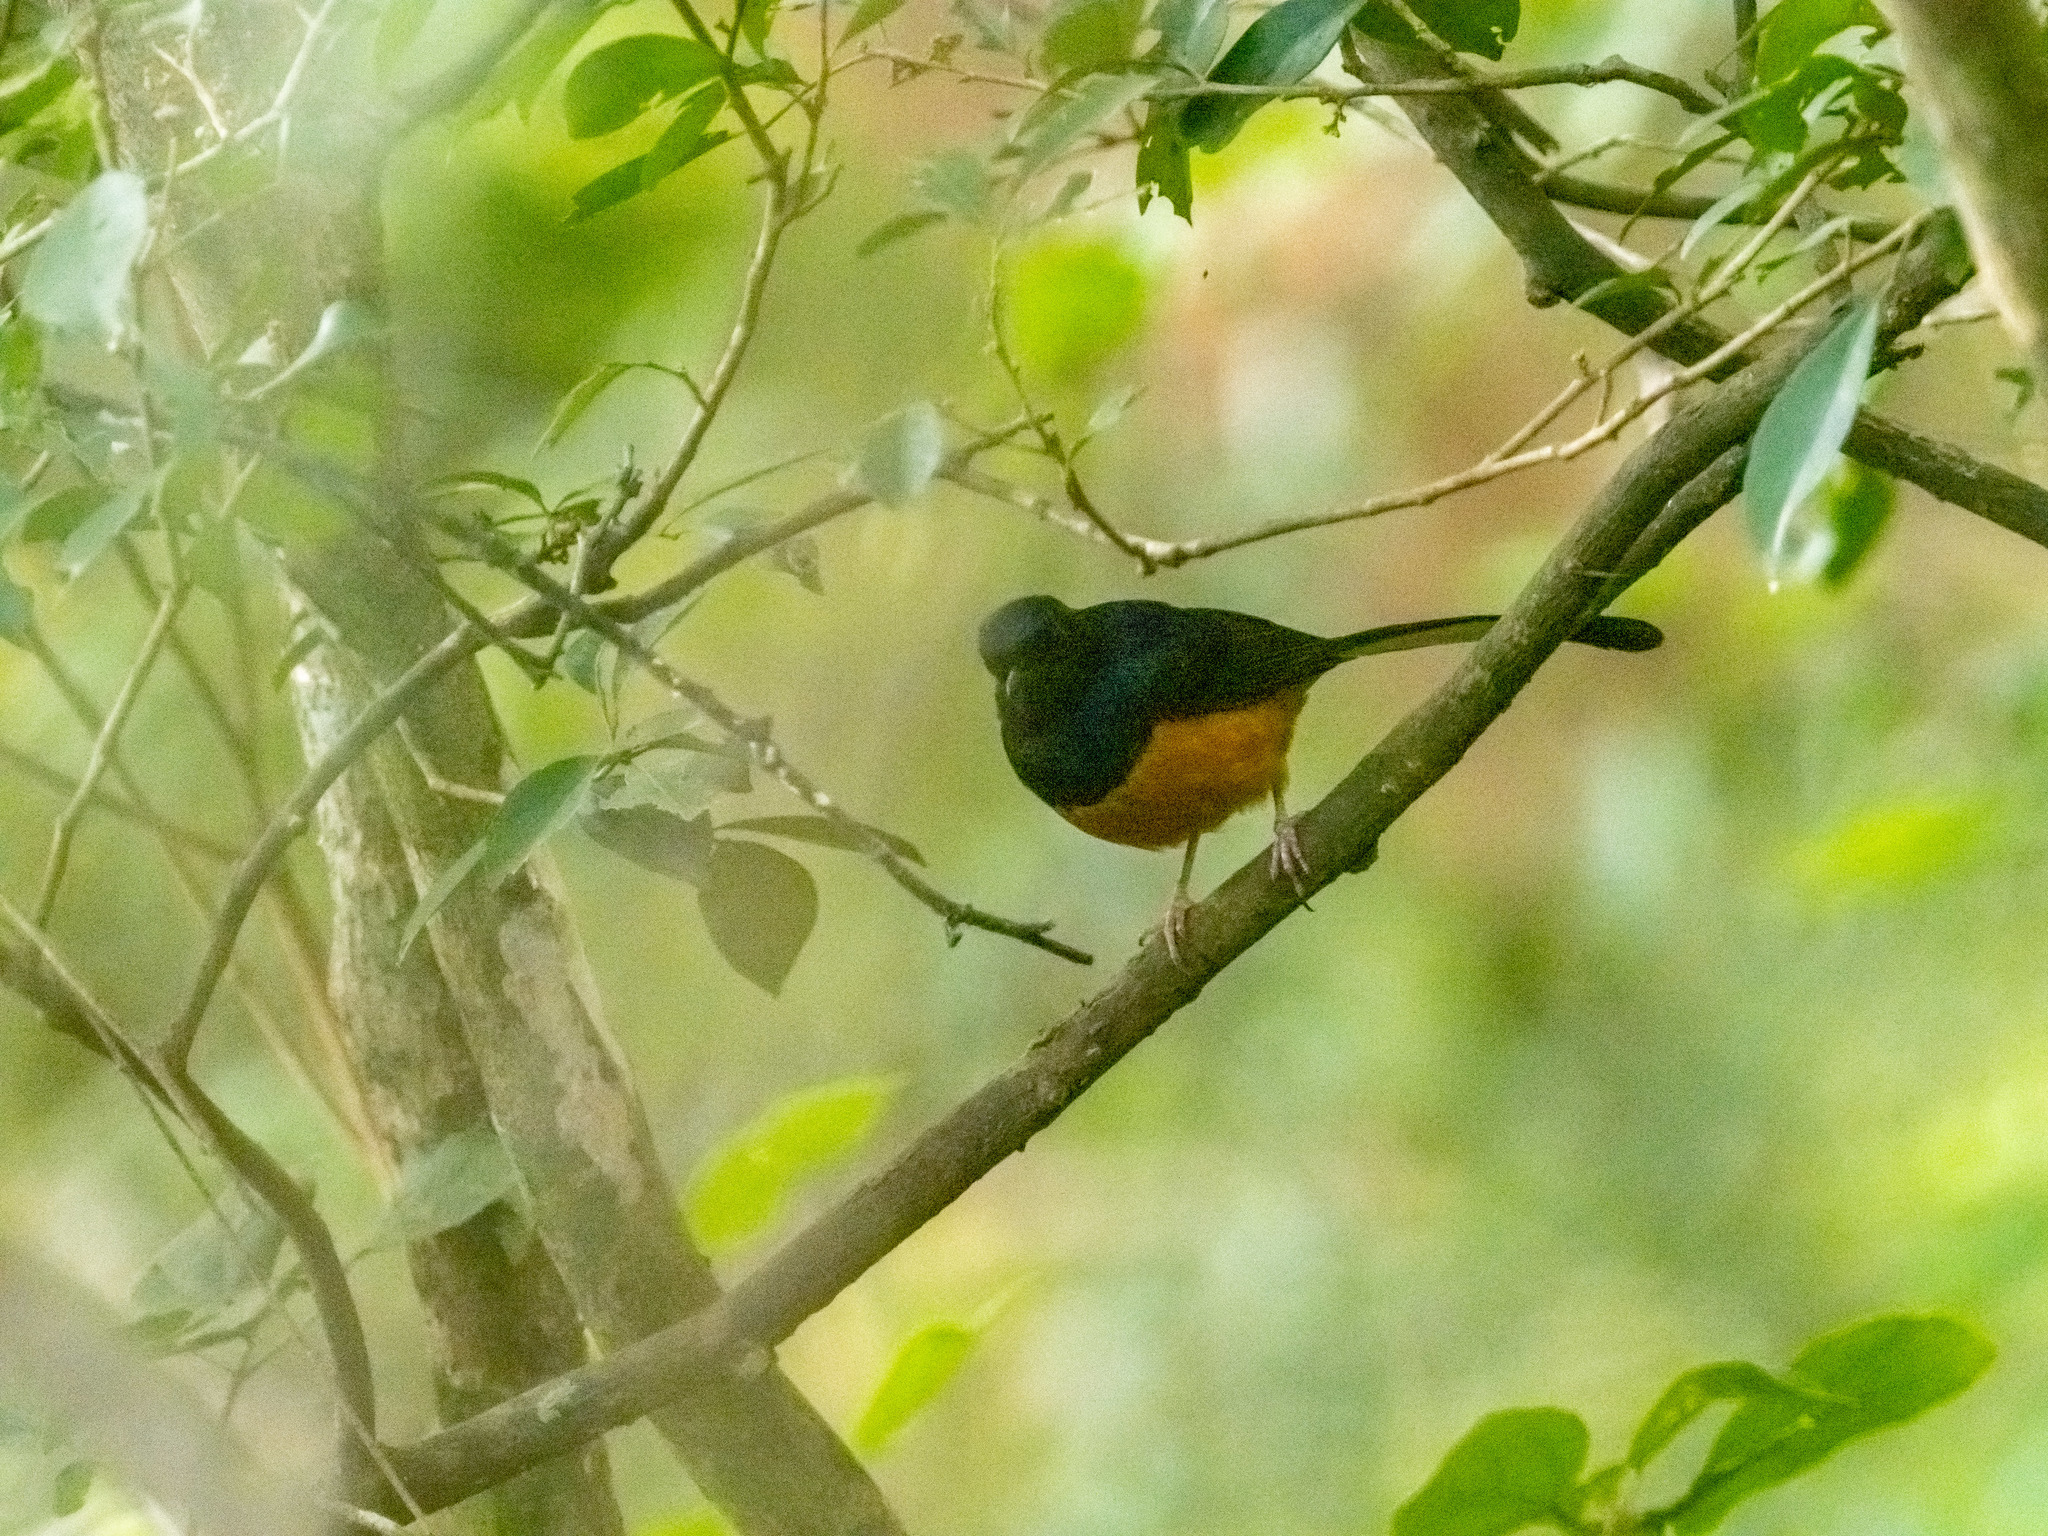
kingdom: Animalia
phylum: Chordata
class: Aves
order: Passeriformes
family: Muscicapidae
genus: Copsychus
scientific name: Copsychus malabaricus
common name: White-rumped shama
